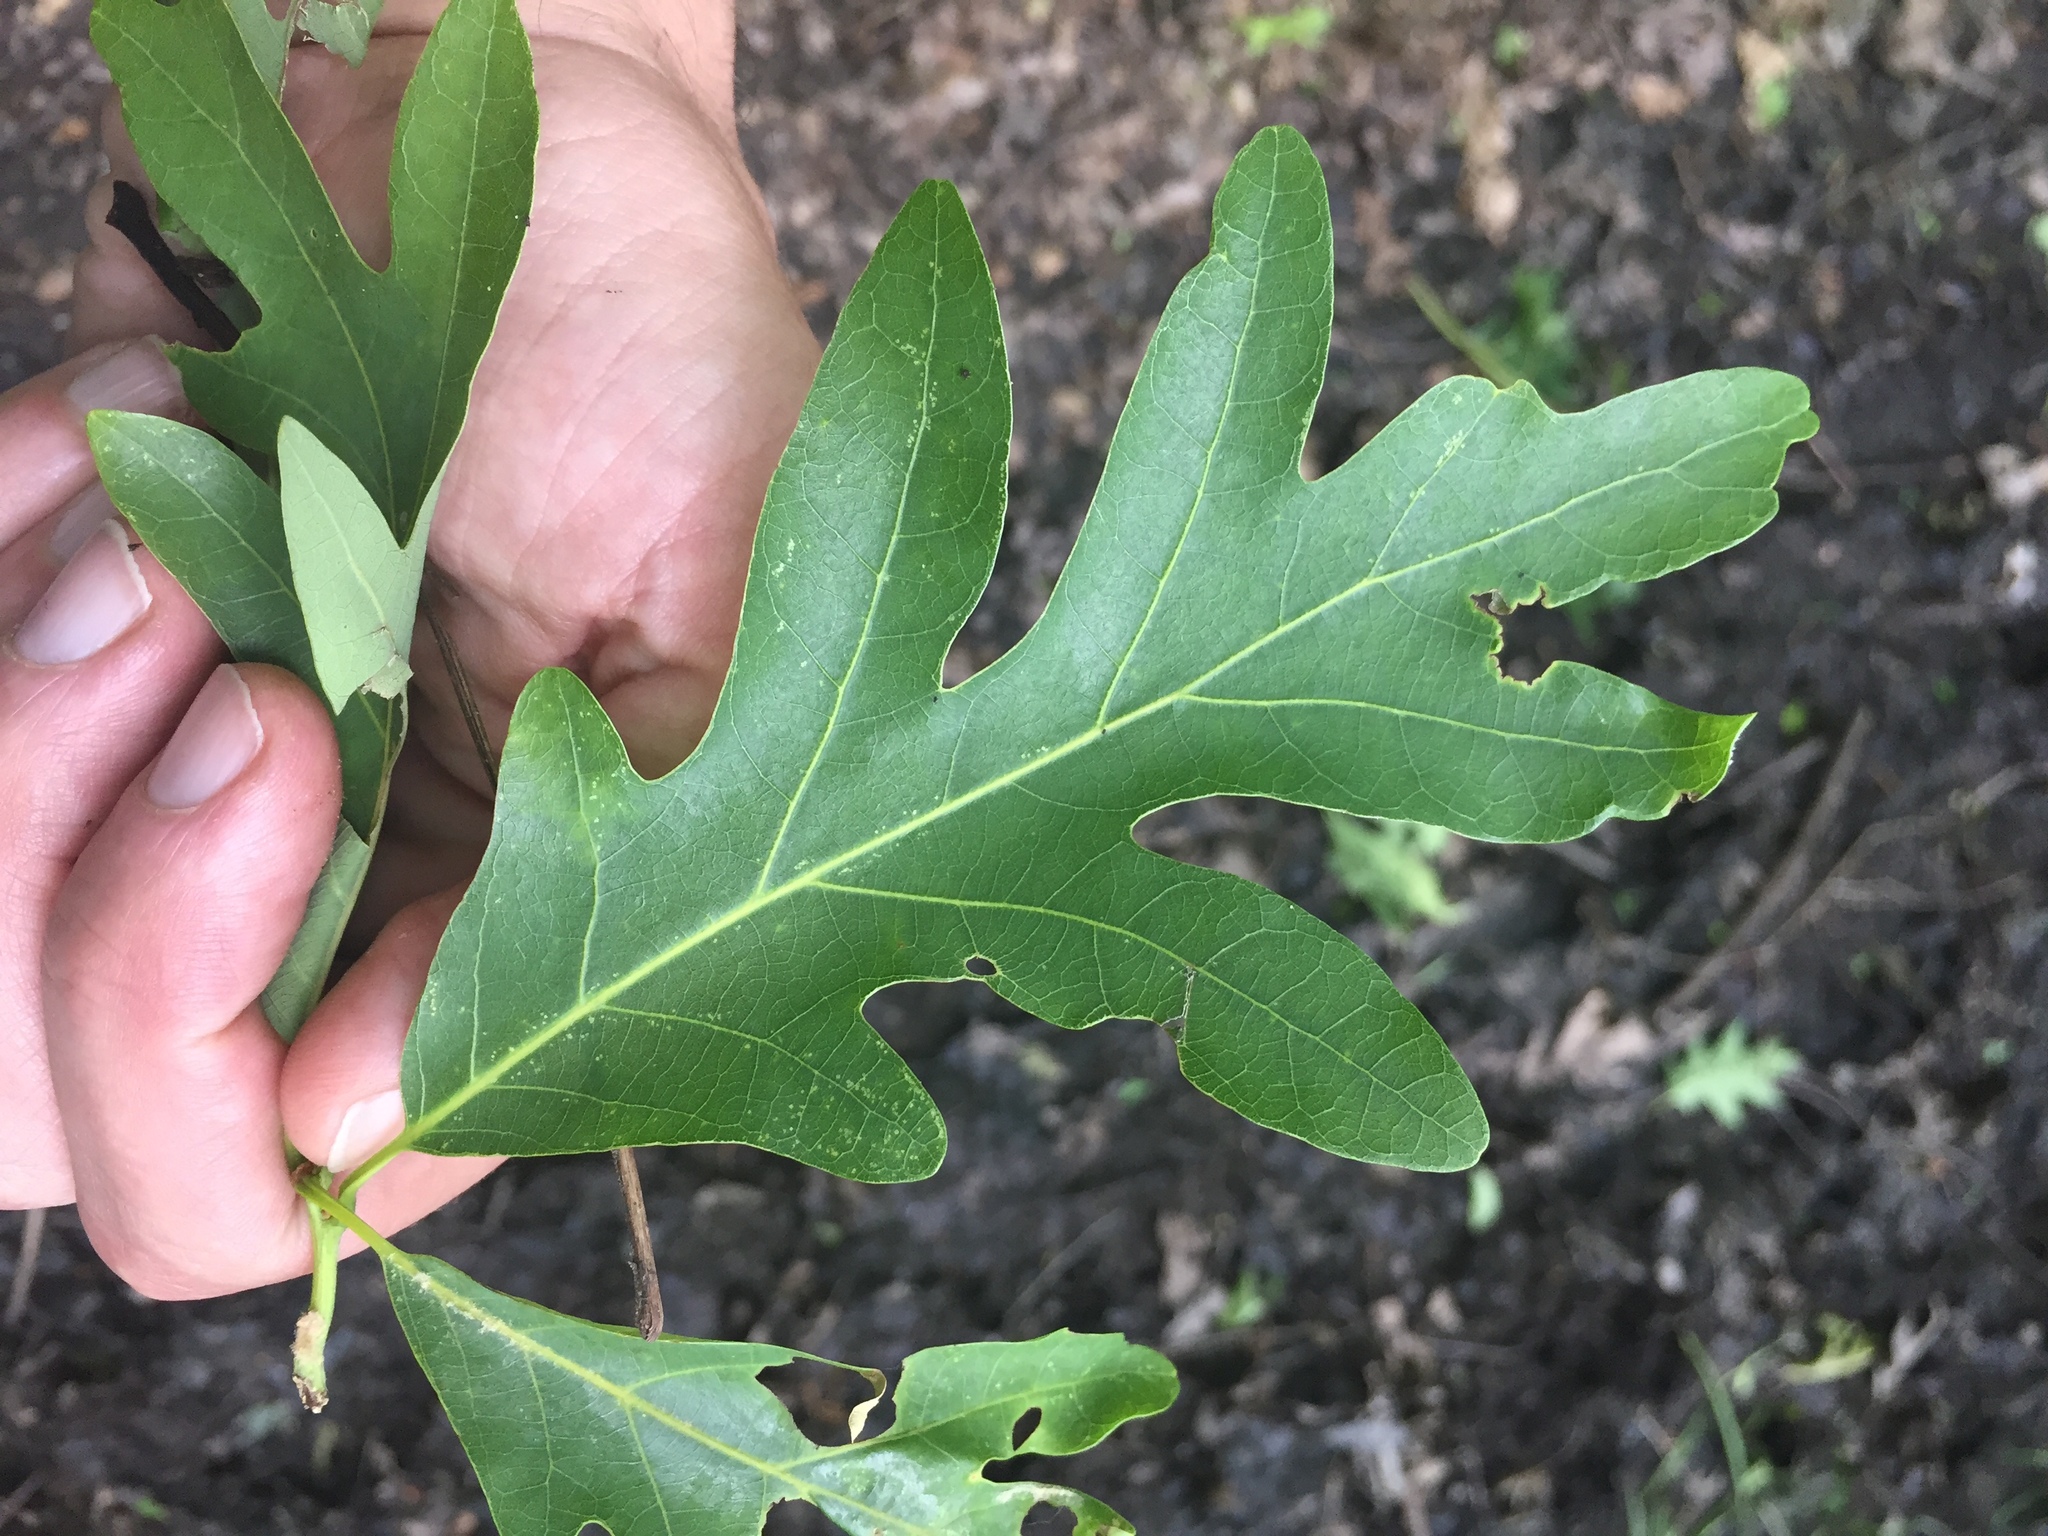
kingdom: Plantae
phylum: Tracheophyta
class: Magnoliopsida
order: Fagales
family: Fagaceae
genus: Quercus
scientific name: Quercus alba
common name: White oak
